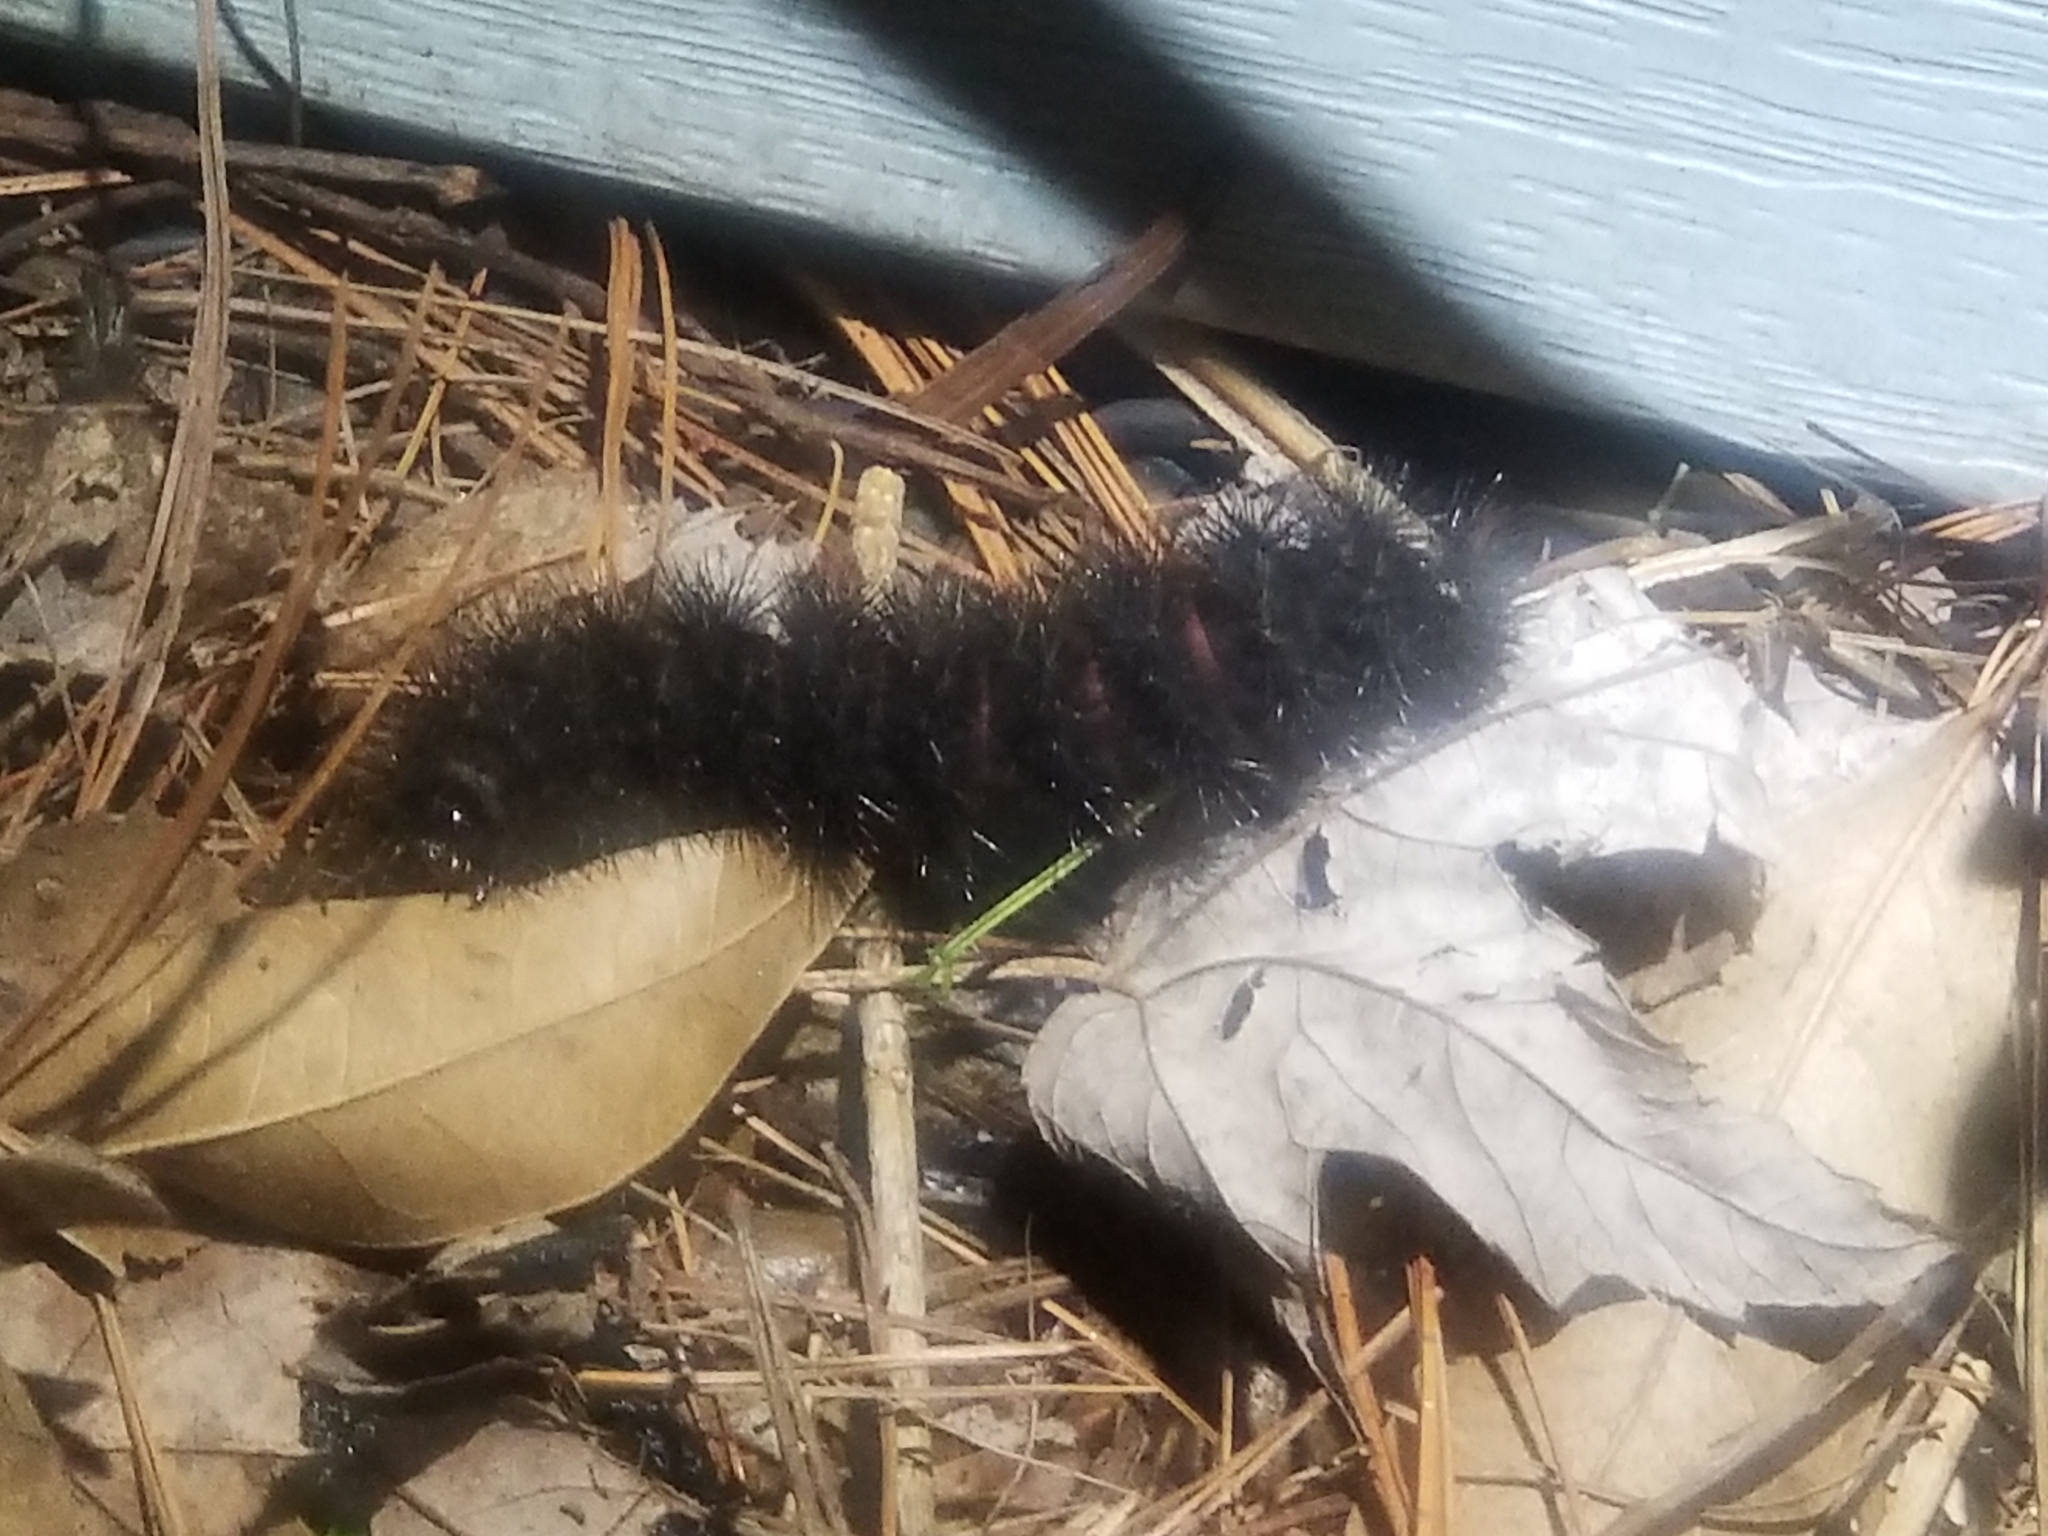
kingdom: Animalia
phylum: Arthropoda
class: Insecta
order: Lepidoptera
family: Erebidae
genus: Hypercompe
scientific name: Hypercompe scribonia
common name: Giant leopard moth
